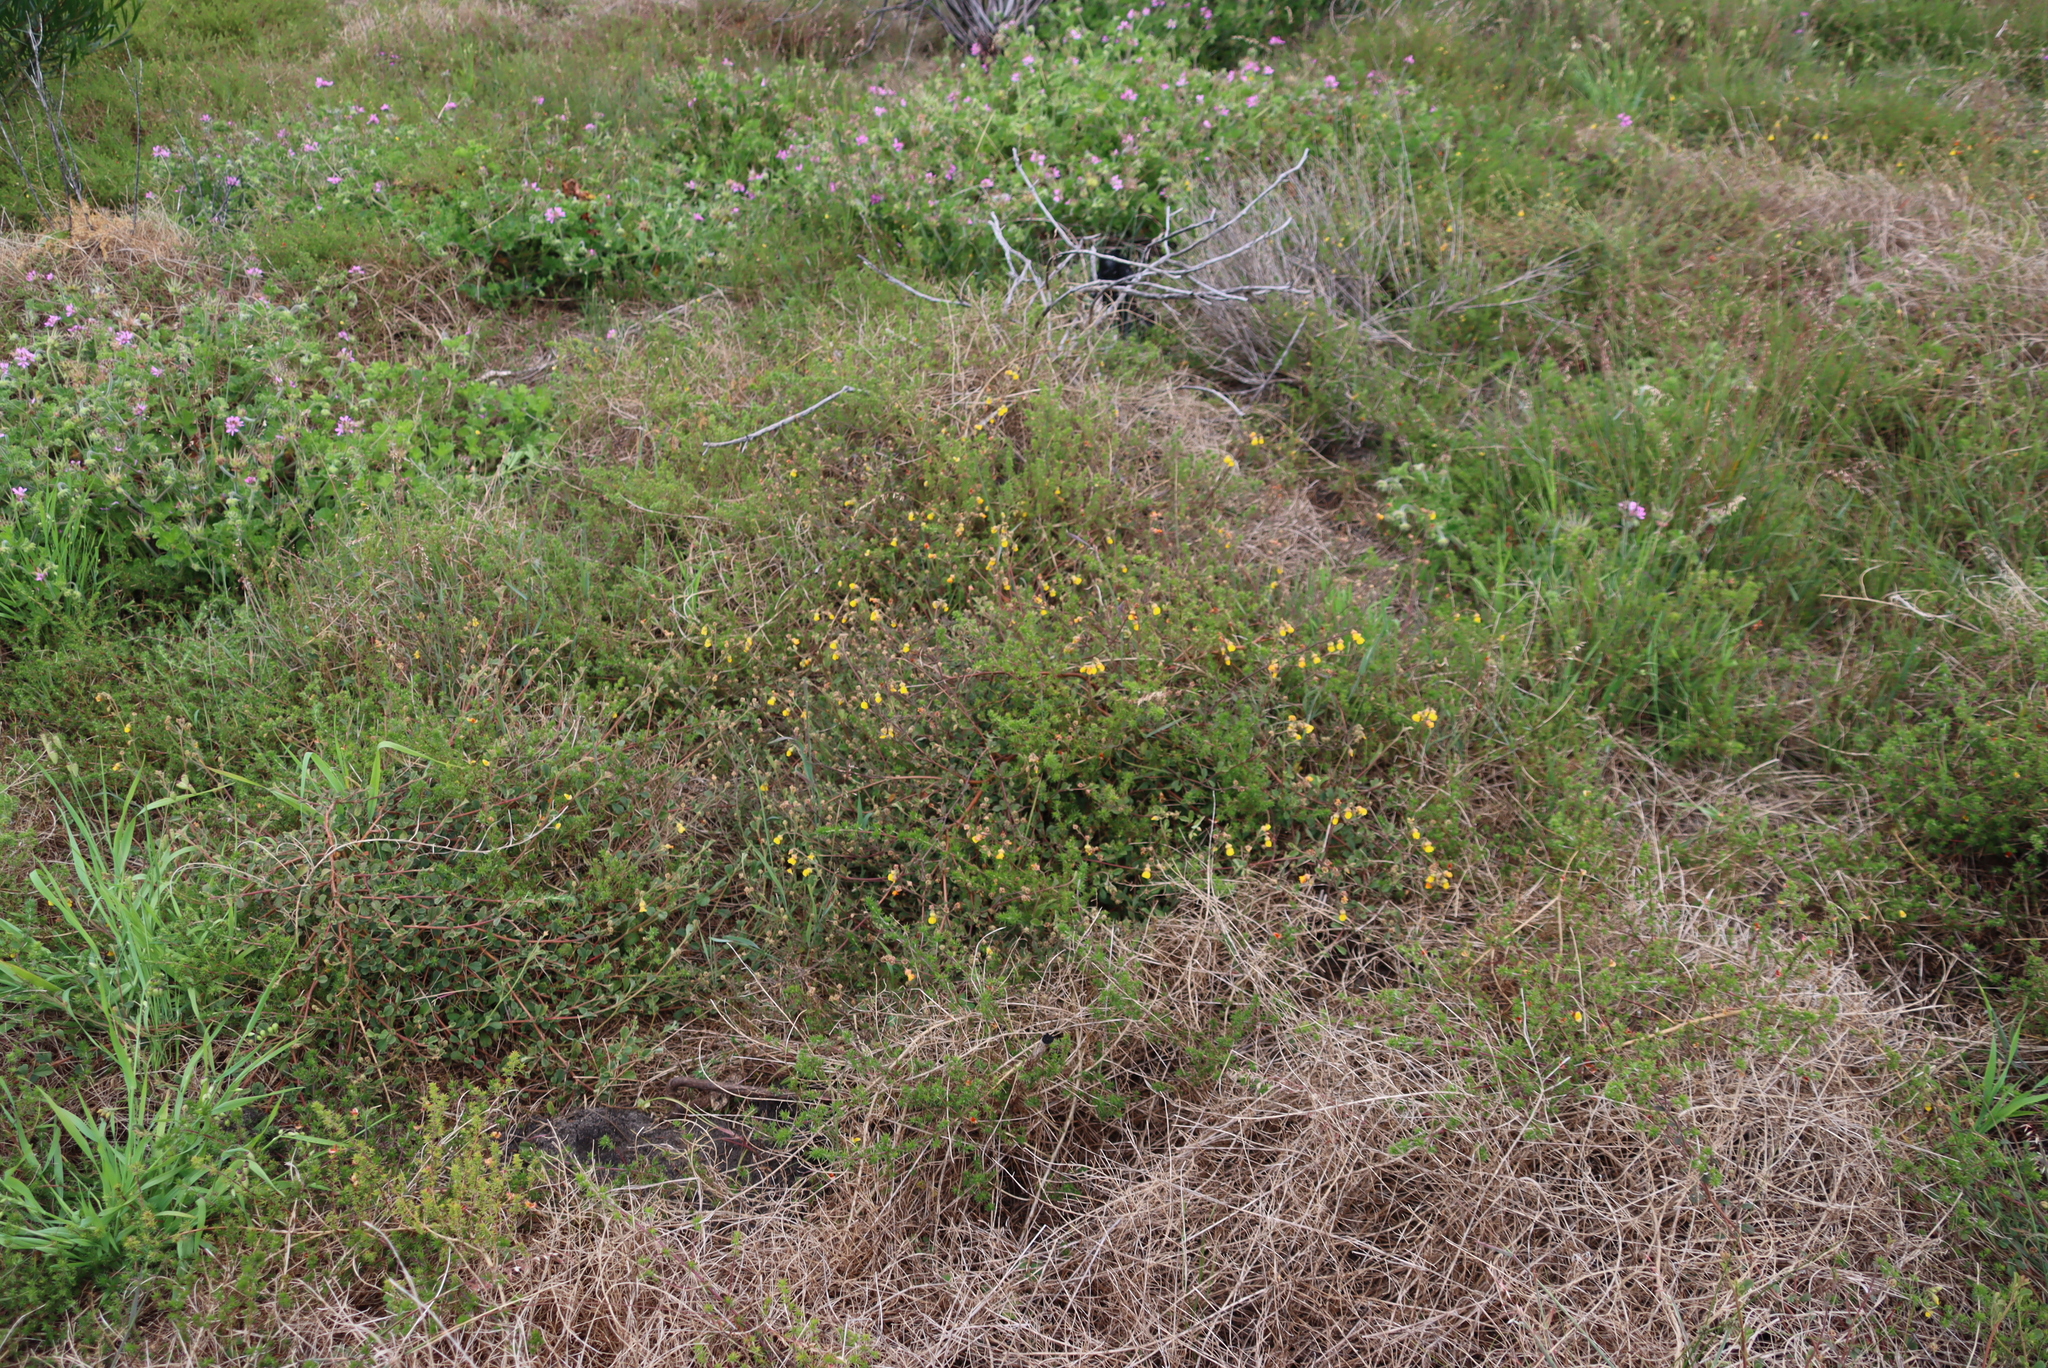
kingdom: Plantae
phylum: Tracheophyta
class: Magnoliopsida
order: Malvales
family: Malvaceae
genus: Hermannia
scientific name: Hermannia multiflora
